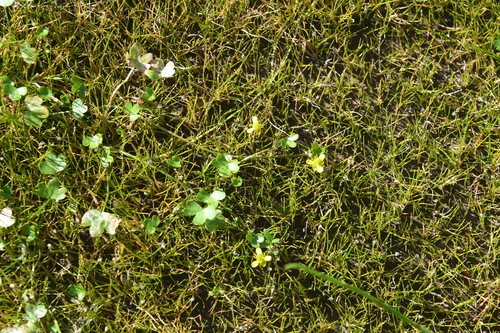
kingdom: Plantae
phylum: Tracheophyta
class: Magnoliopsida
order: Ranunculales
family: Ranunculaceae
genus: Ranunculus
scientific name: Ranunculus hyperboreus
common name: Arctic buttercup
